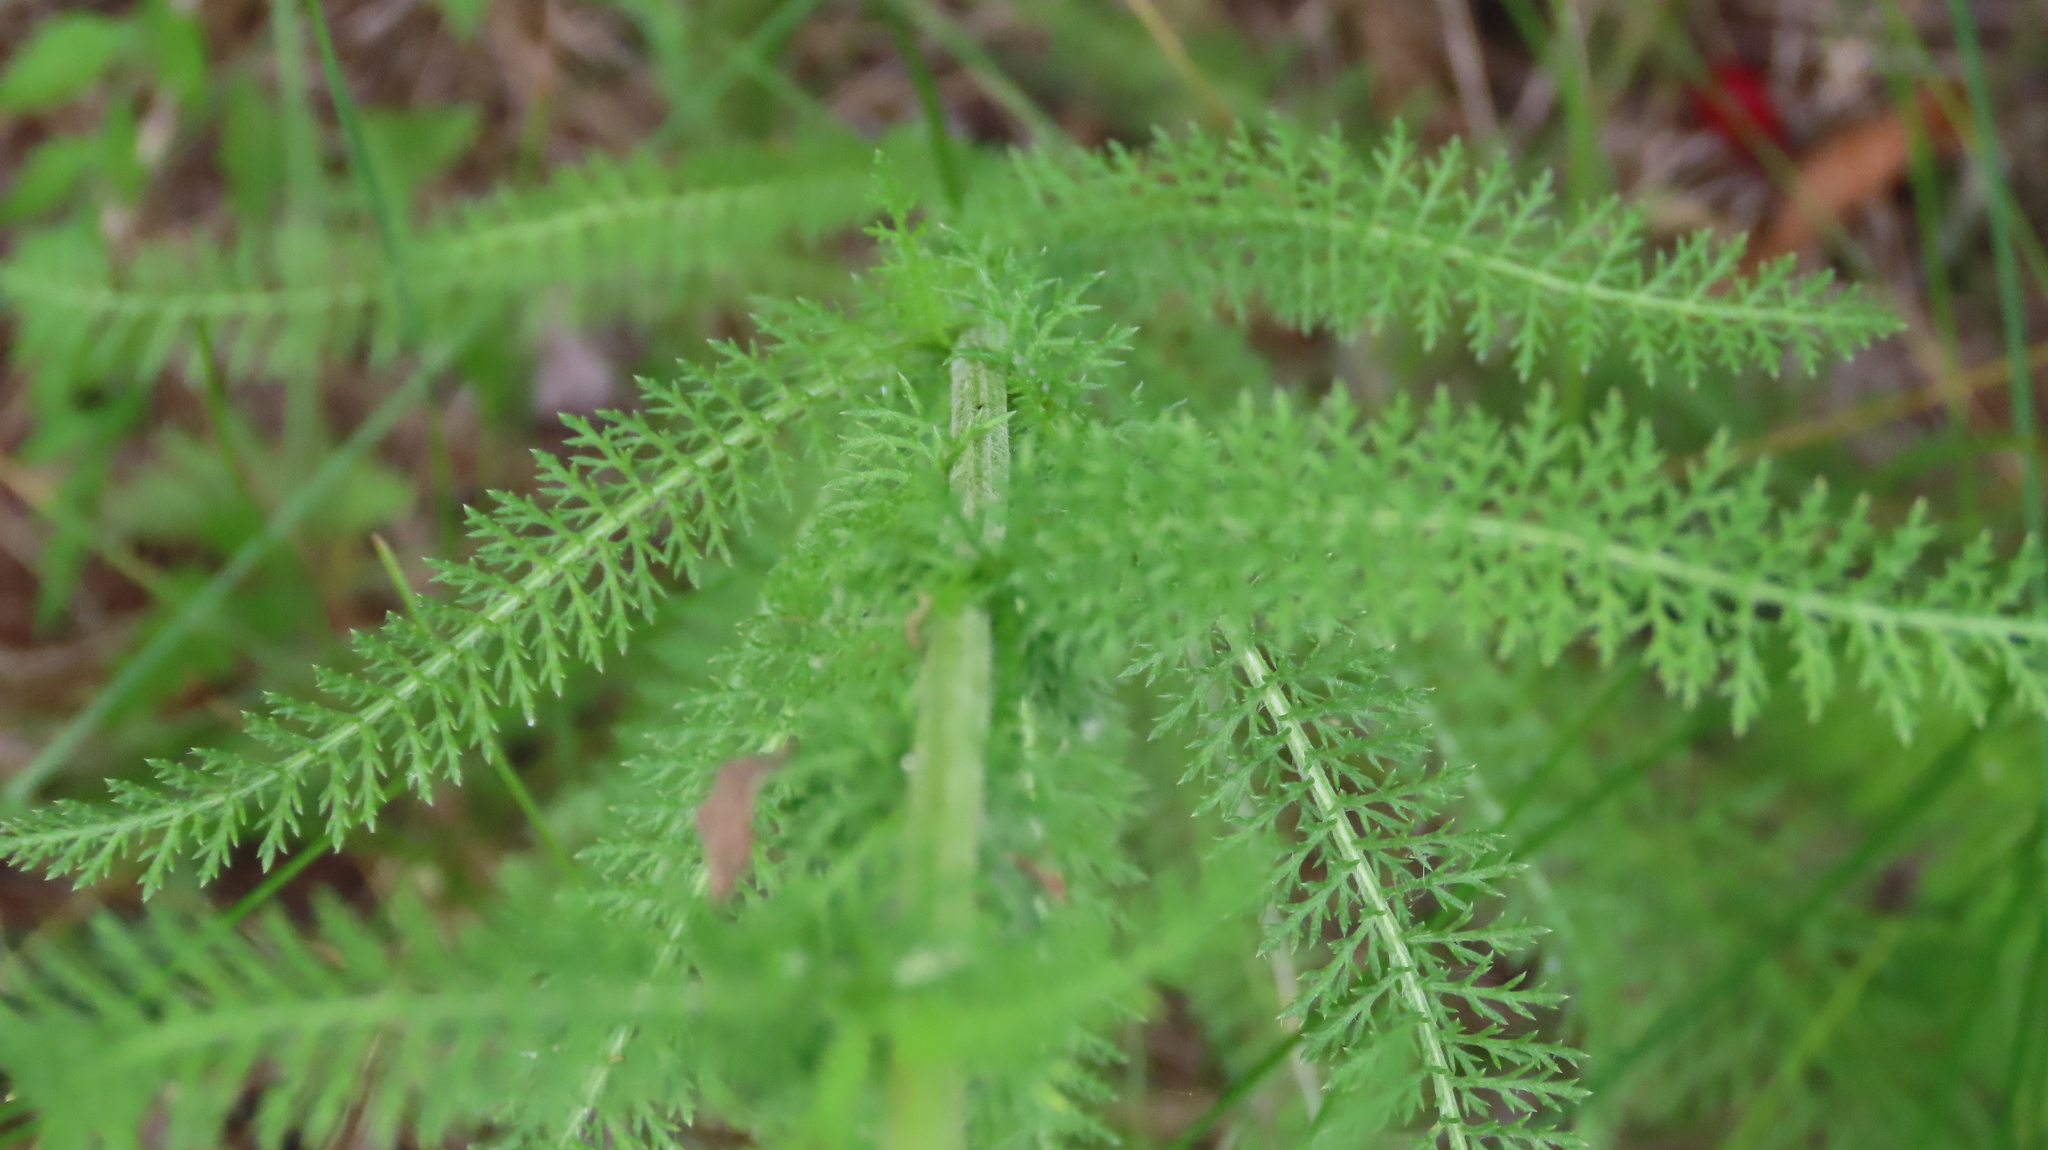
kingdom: Plantae
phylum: Tracheophyta
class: Magnoliopsida
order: Asterales
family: Asteraceae
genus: Achillea
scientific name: Achillea millefolium
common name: Yarrow
